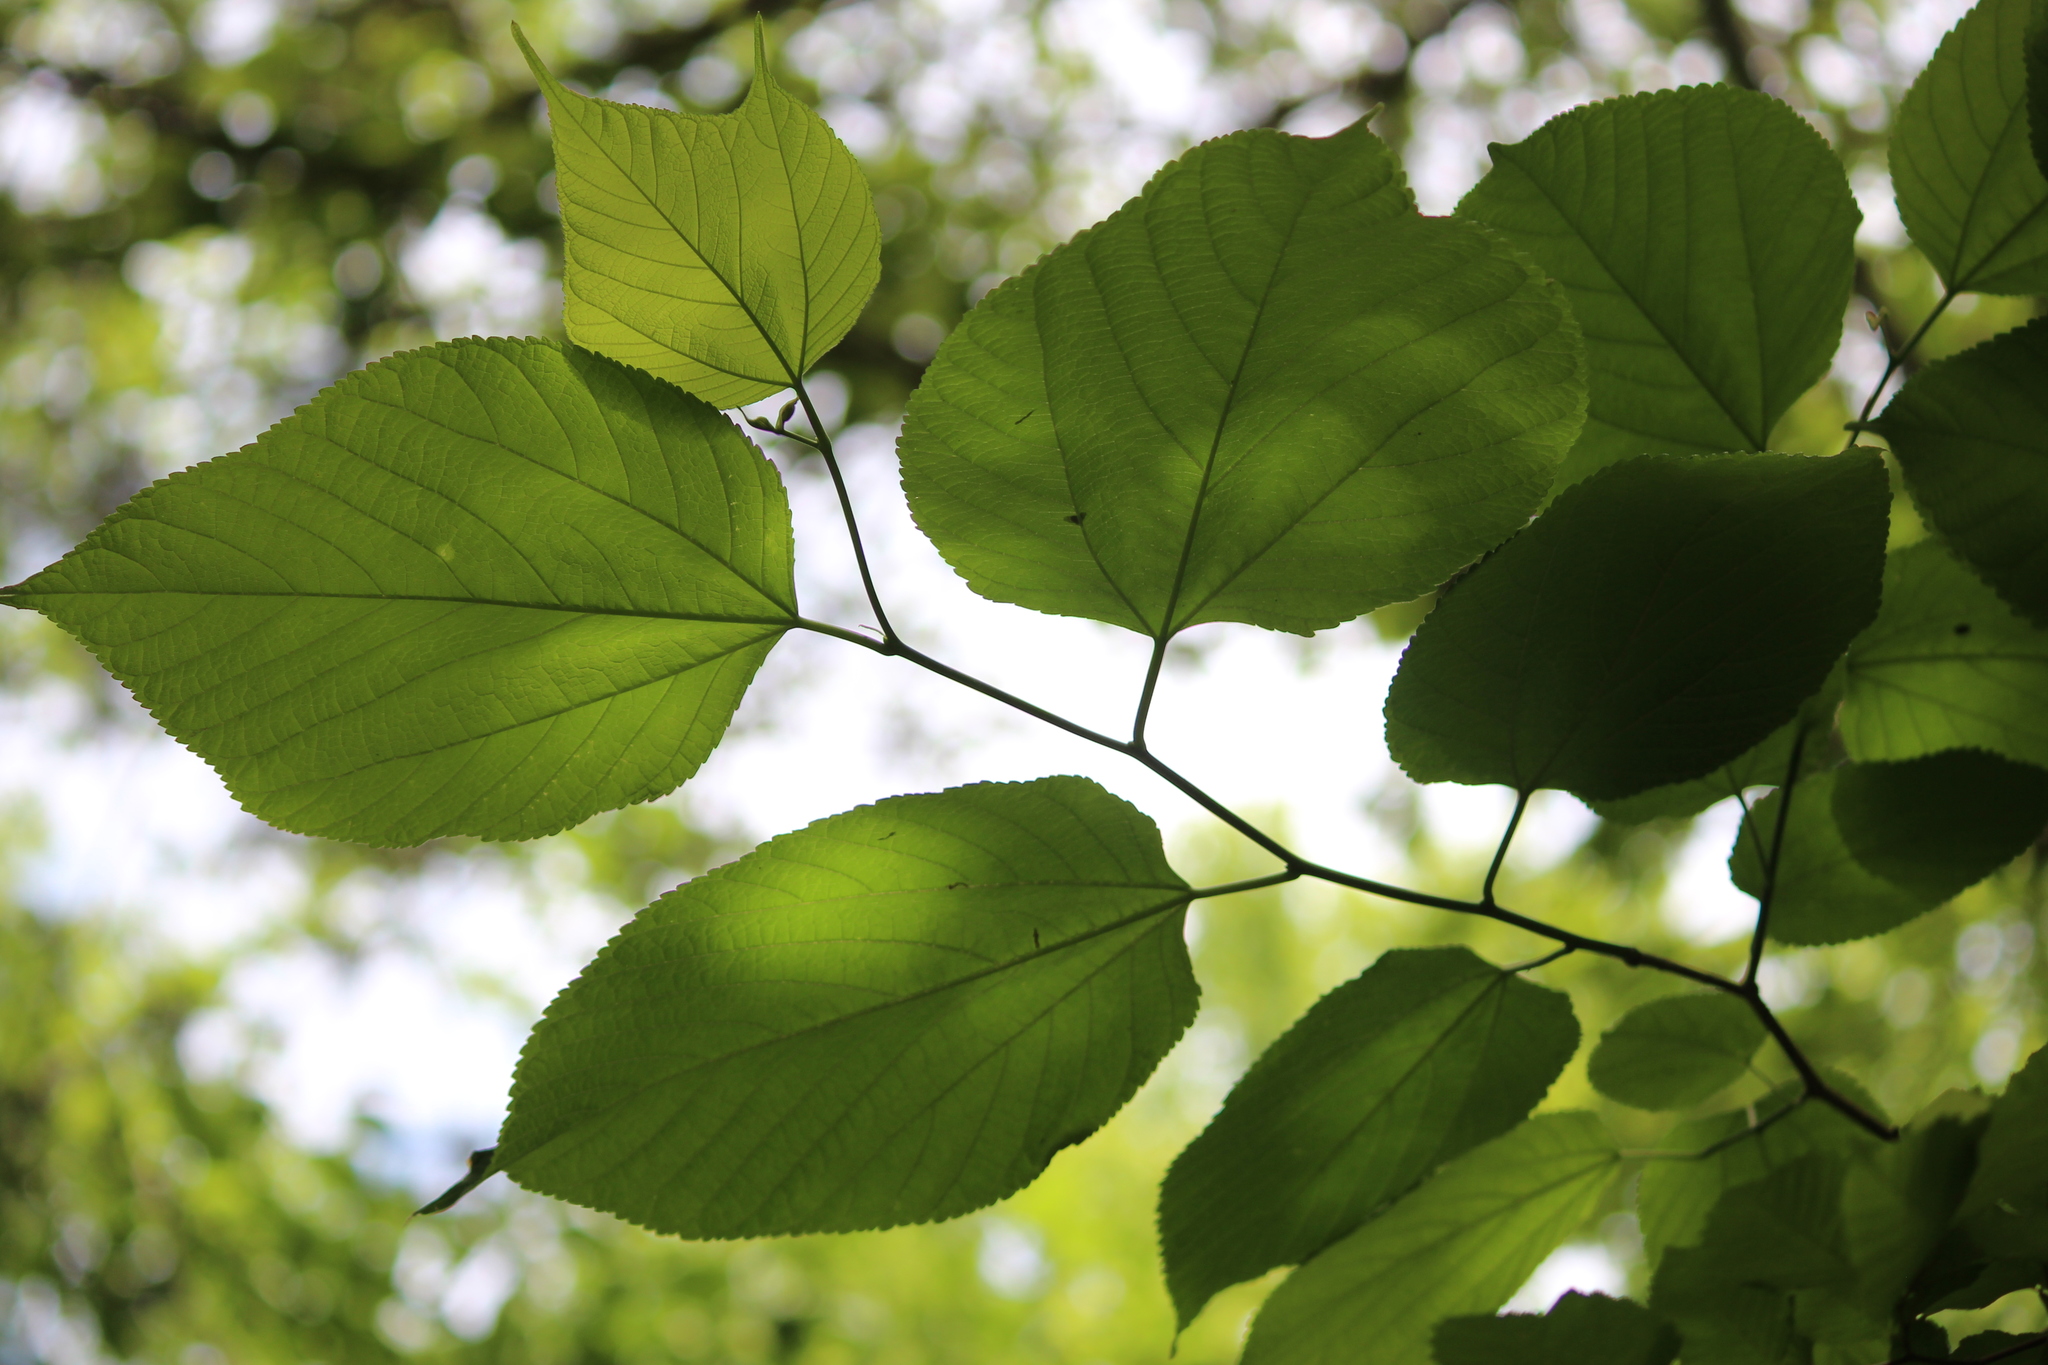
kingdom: Plantae
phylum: Tracheophyta
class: Magnoliopsida
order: Rosales
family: Moraceae
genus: Morus
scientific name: Morus rubra
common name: Red mulberry
